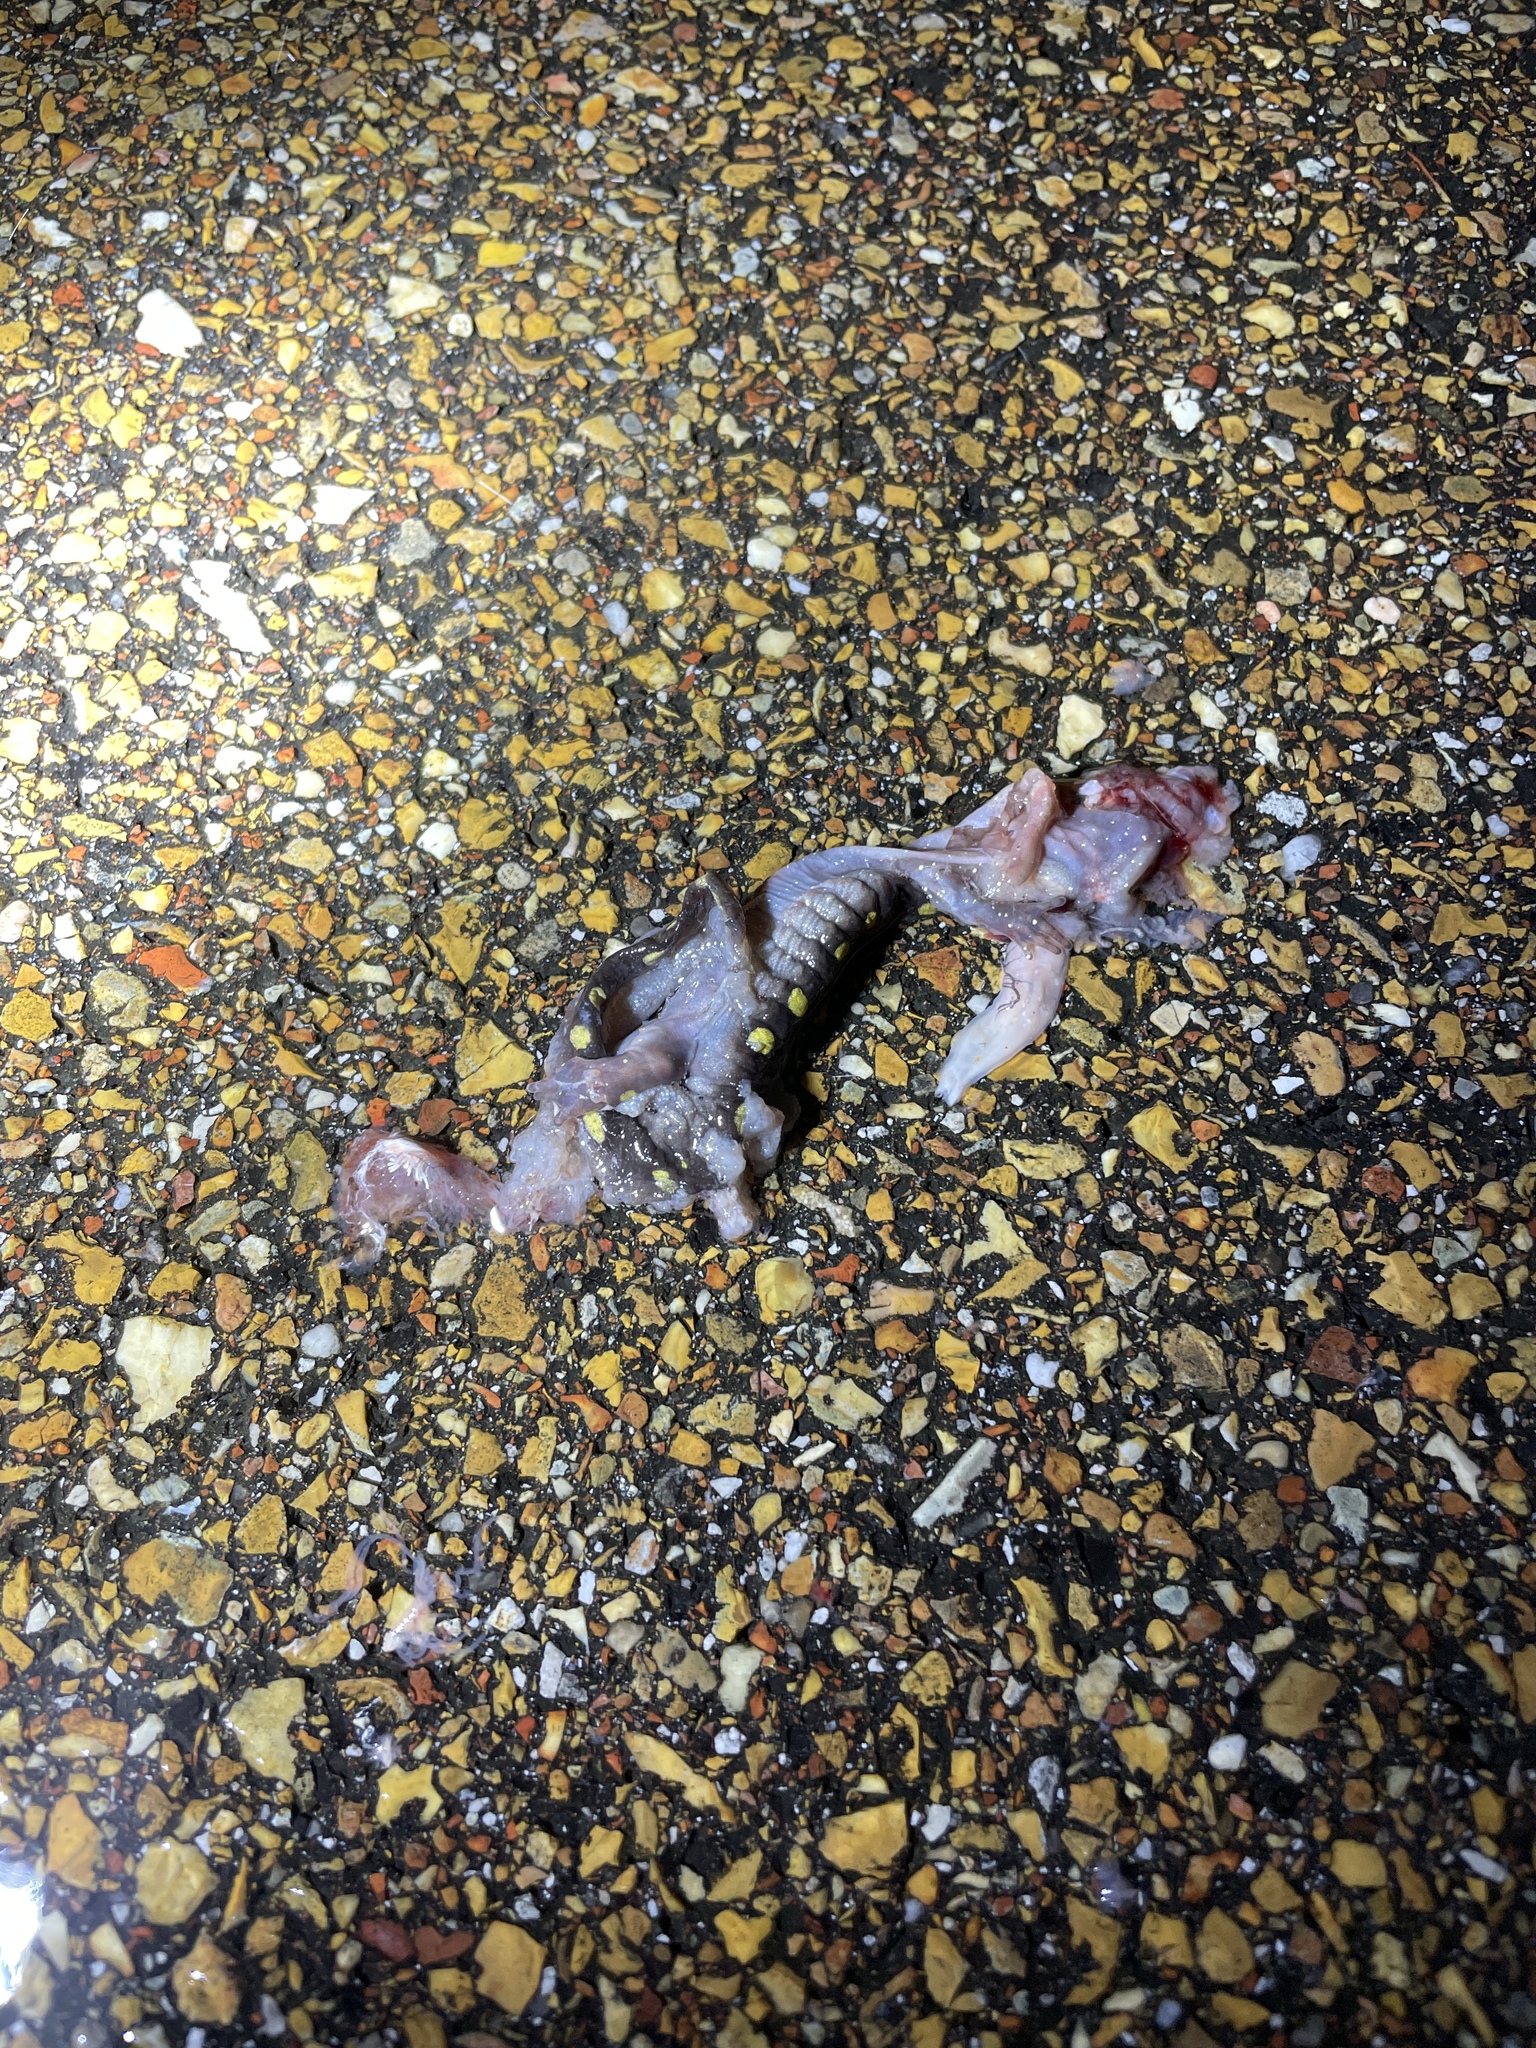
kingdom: Animalia
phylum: Chordata
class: Amphibia
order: Caudata
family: Ambystomatidae
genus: Ambystoma
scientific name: Ambystoma maculatum
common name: Spotted salamander
